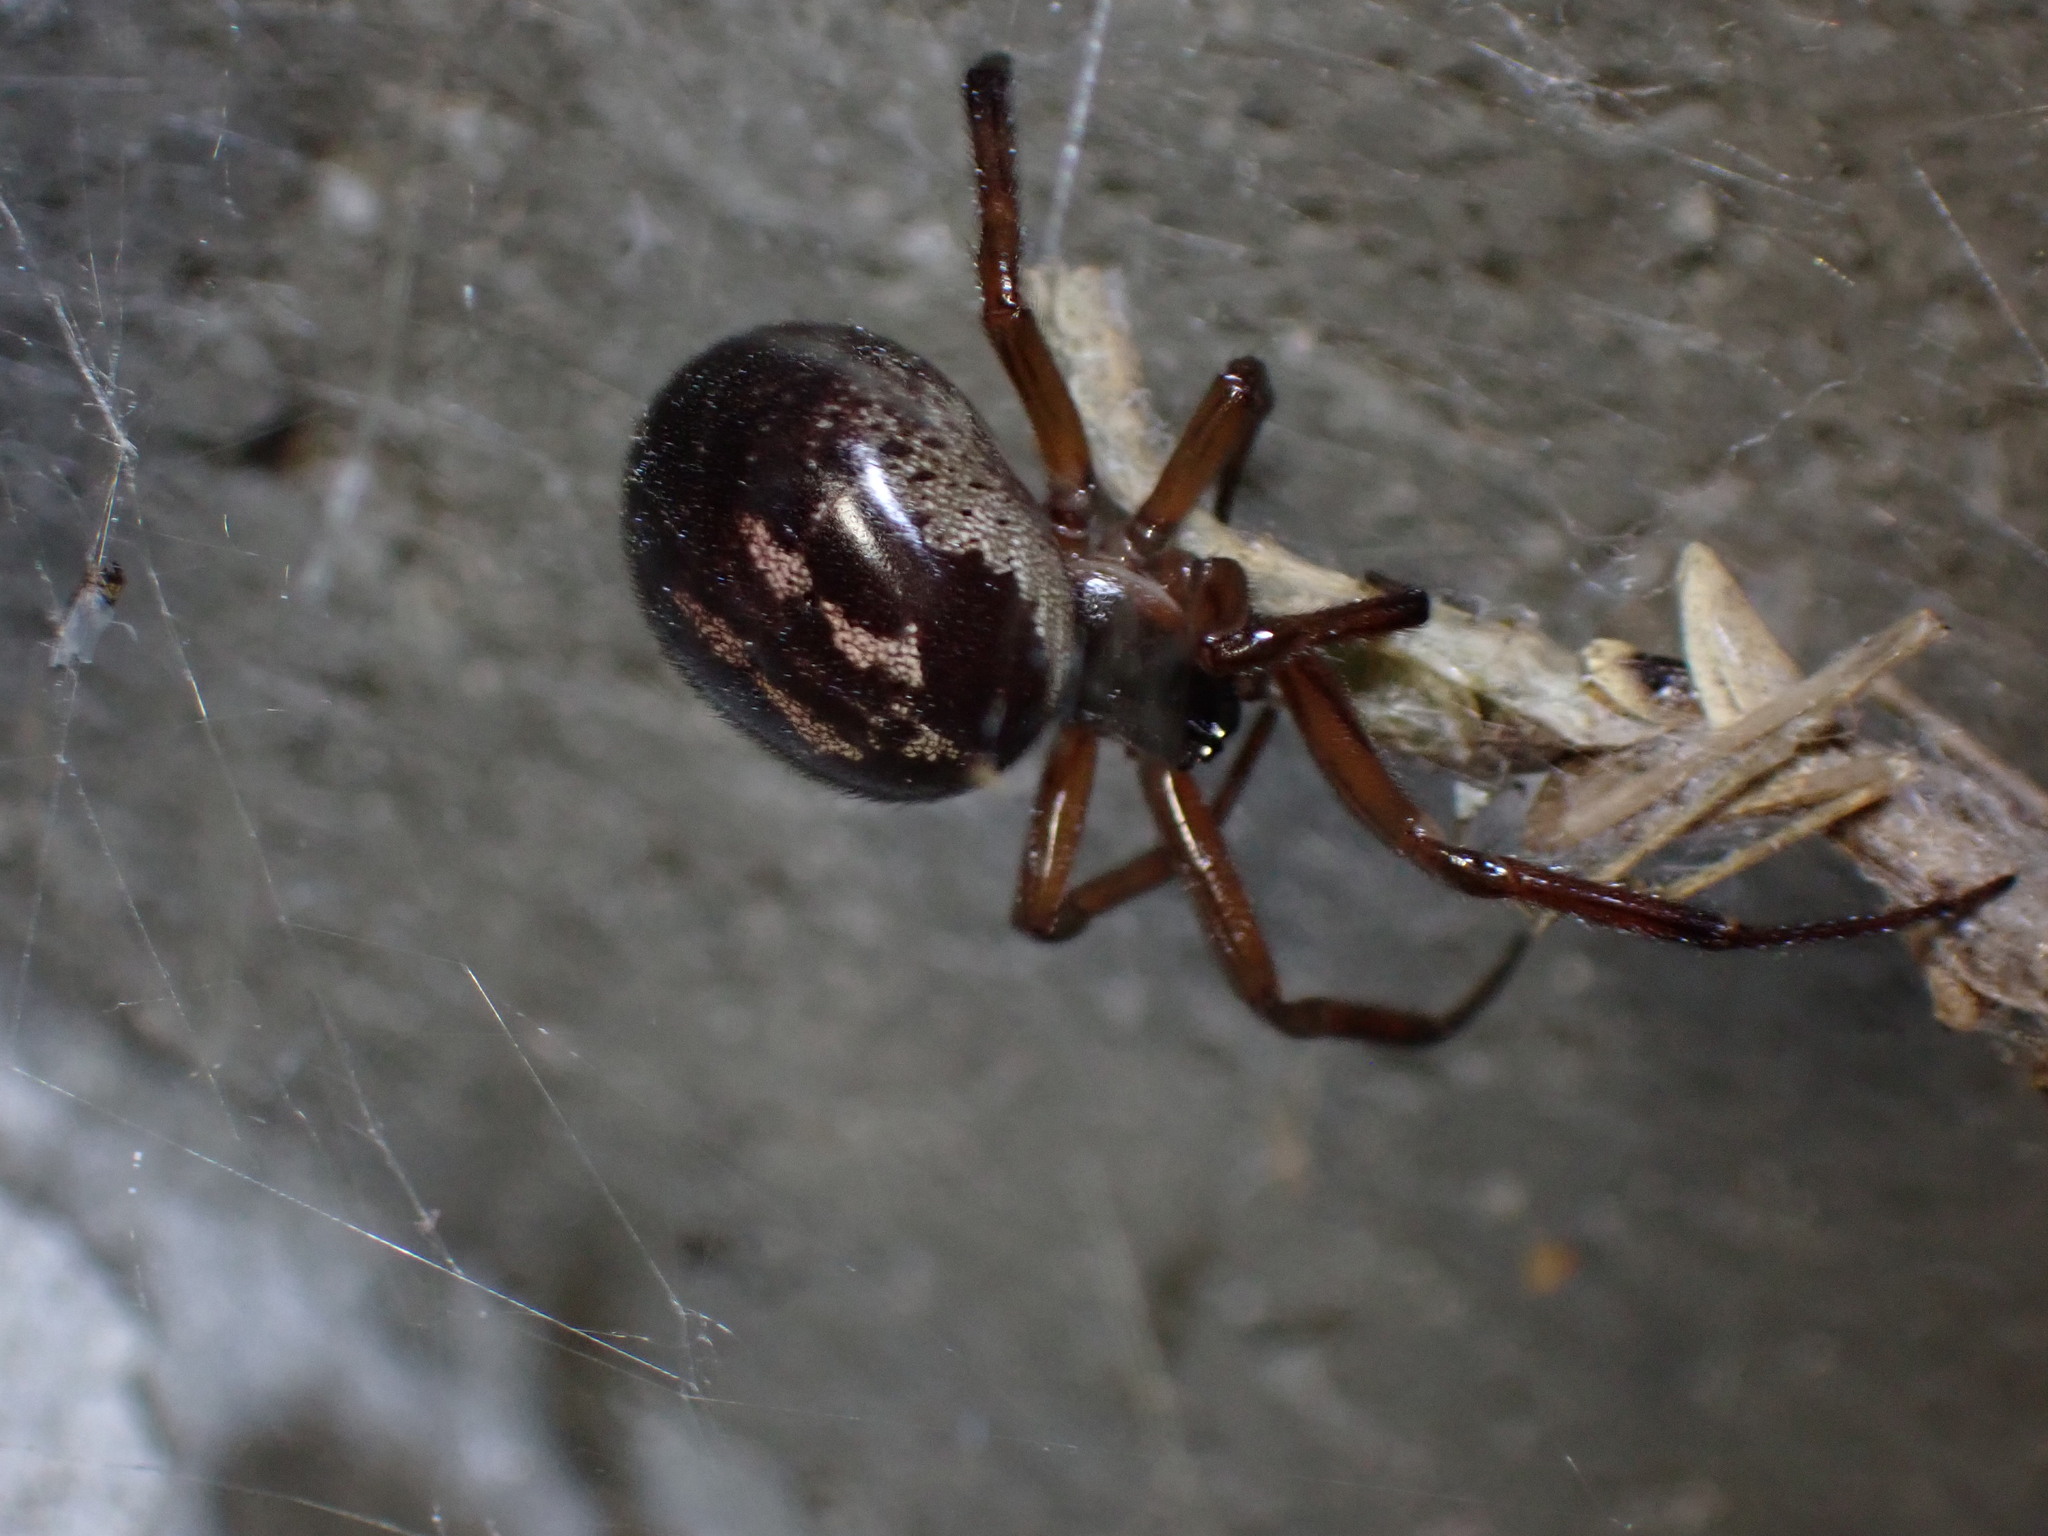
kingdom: Animalia
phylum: Arthropoda
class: Arachnida
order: Araneae
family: Theridiidae
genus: Steatoda
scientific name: Steatoda nobilis
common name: Cobweb weaver
